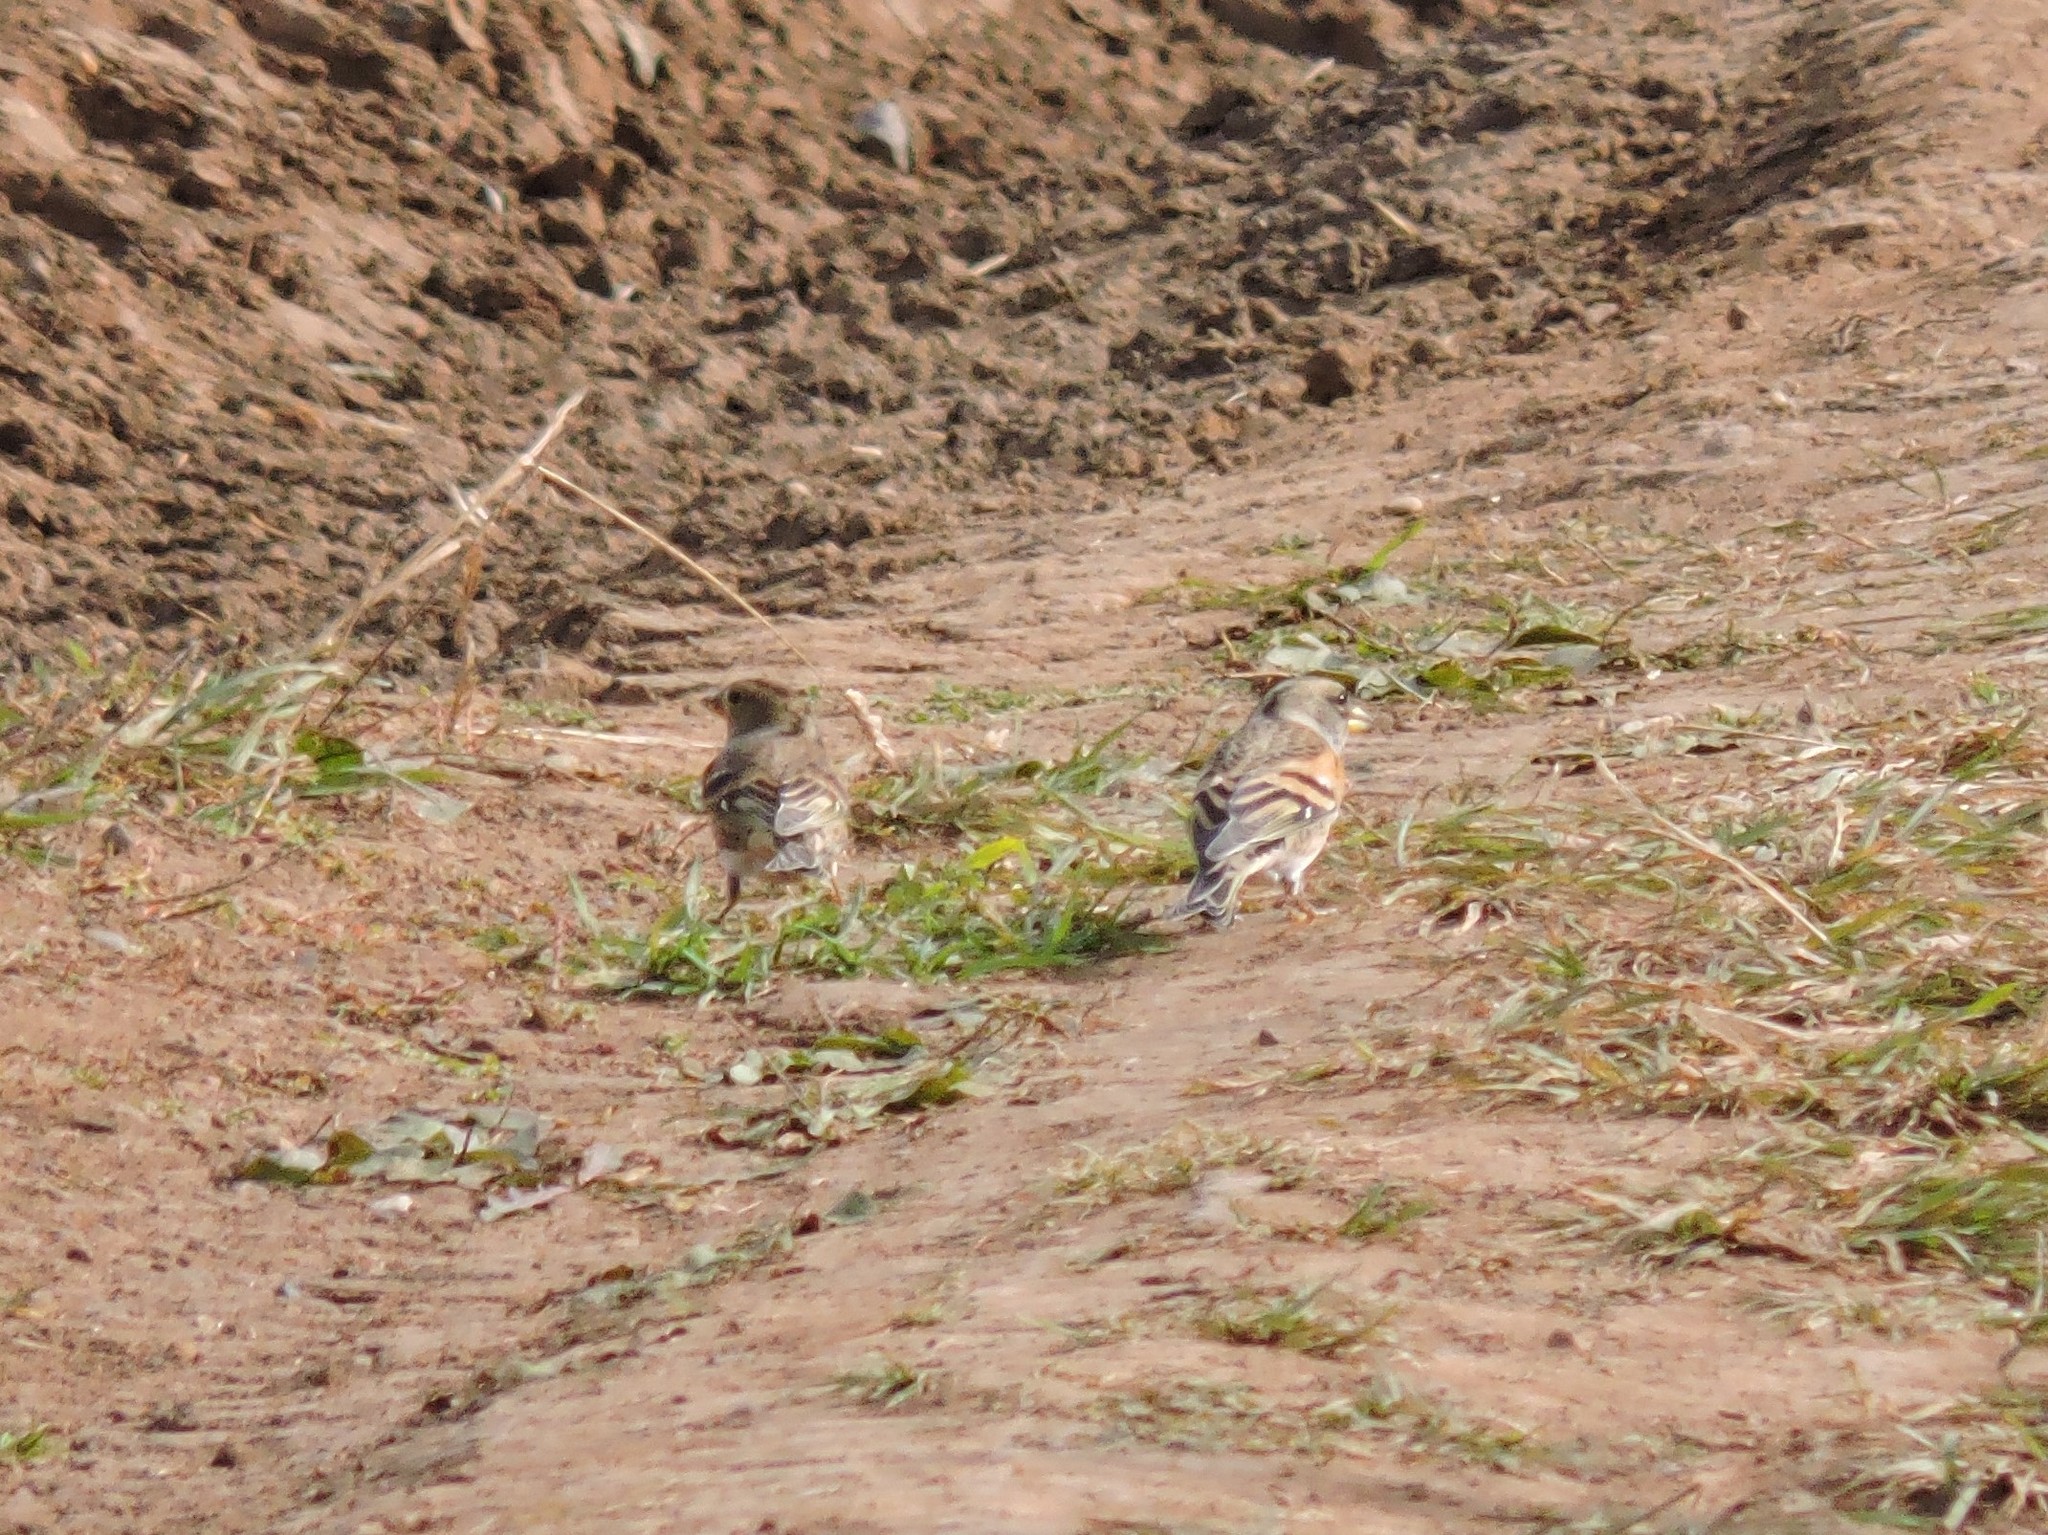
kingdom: Animalia
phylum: Chordata
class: Aves
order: Passeriformes
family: Fringillidae
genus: Fringilla
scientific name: Fringilla montifringilla
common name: Brambling
